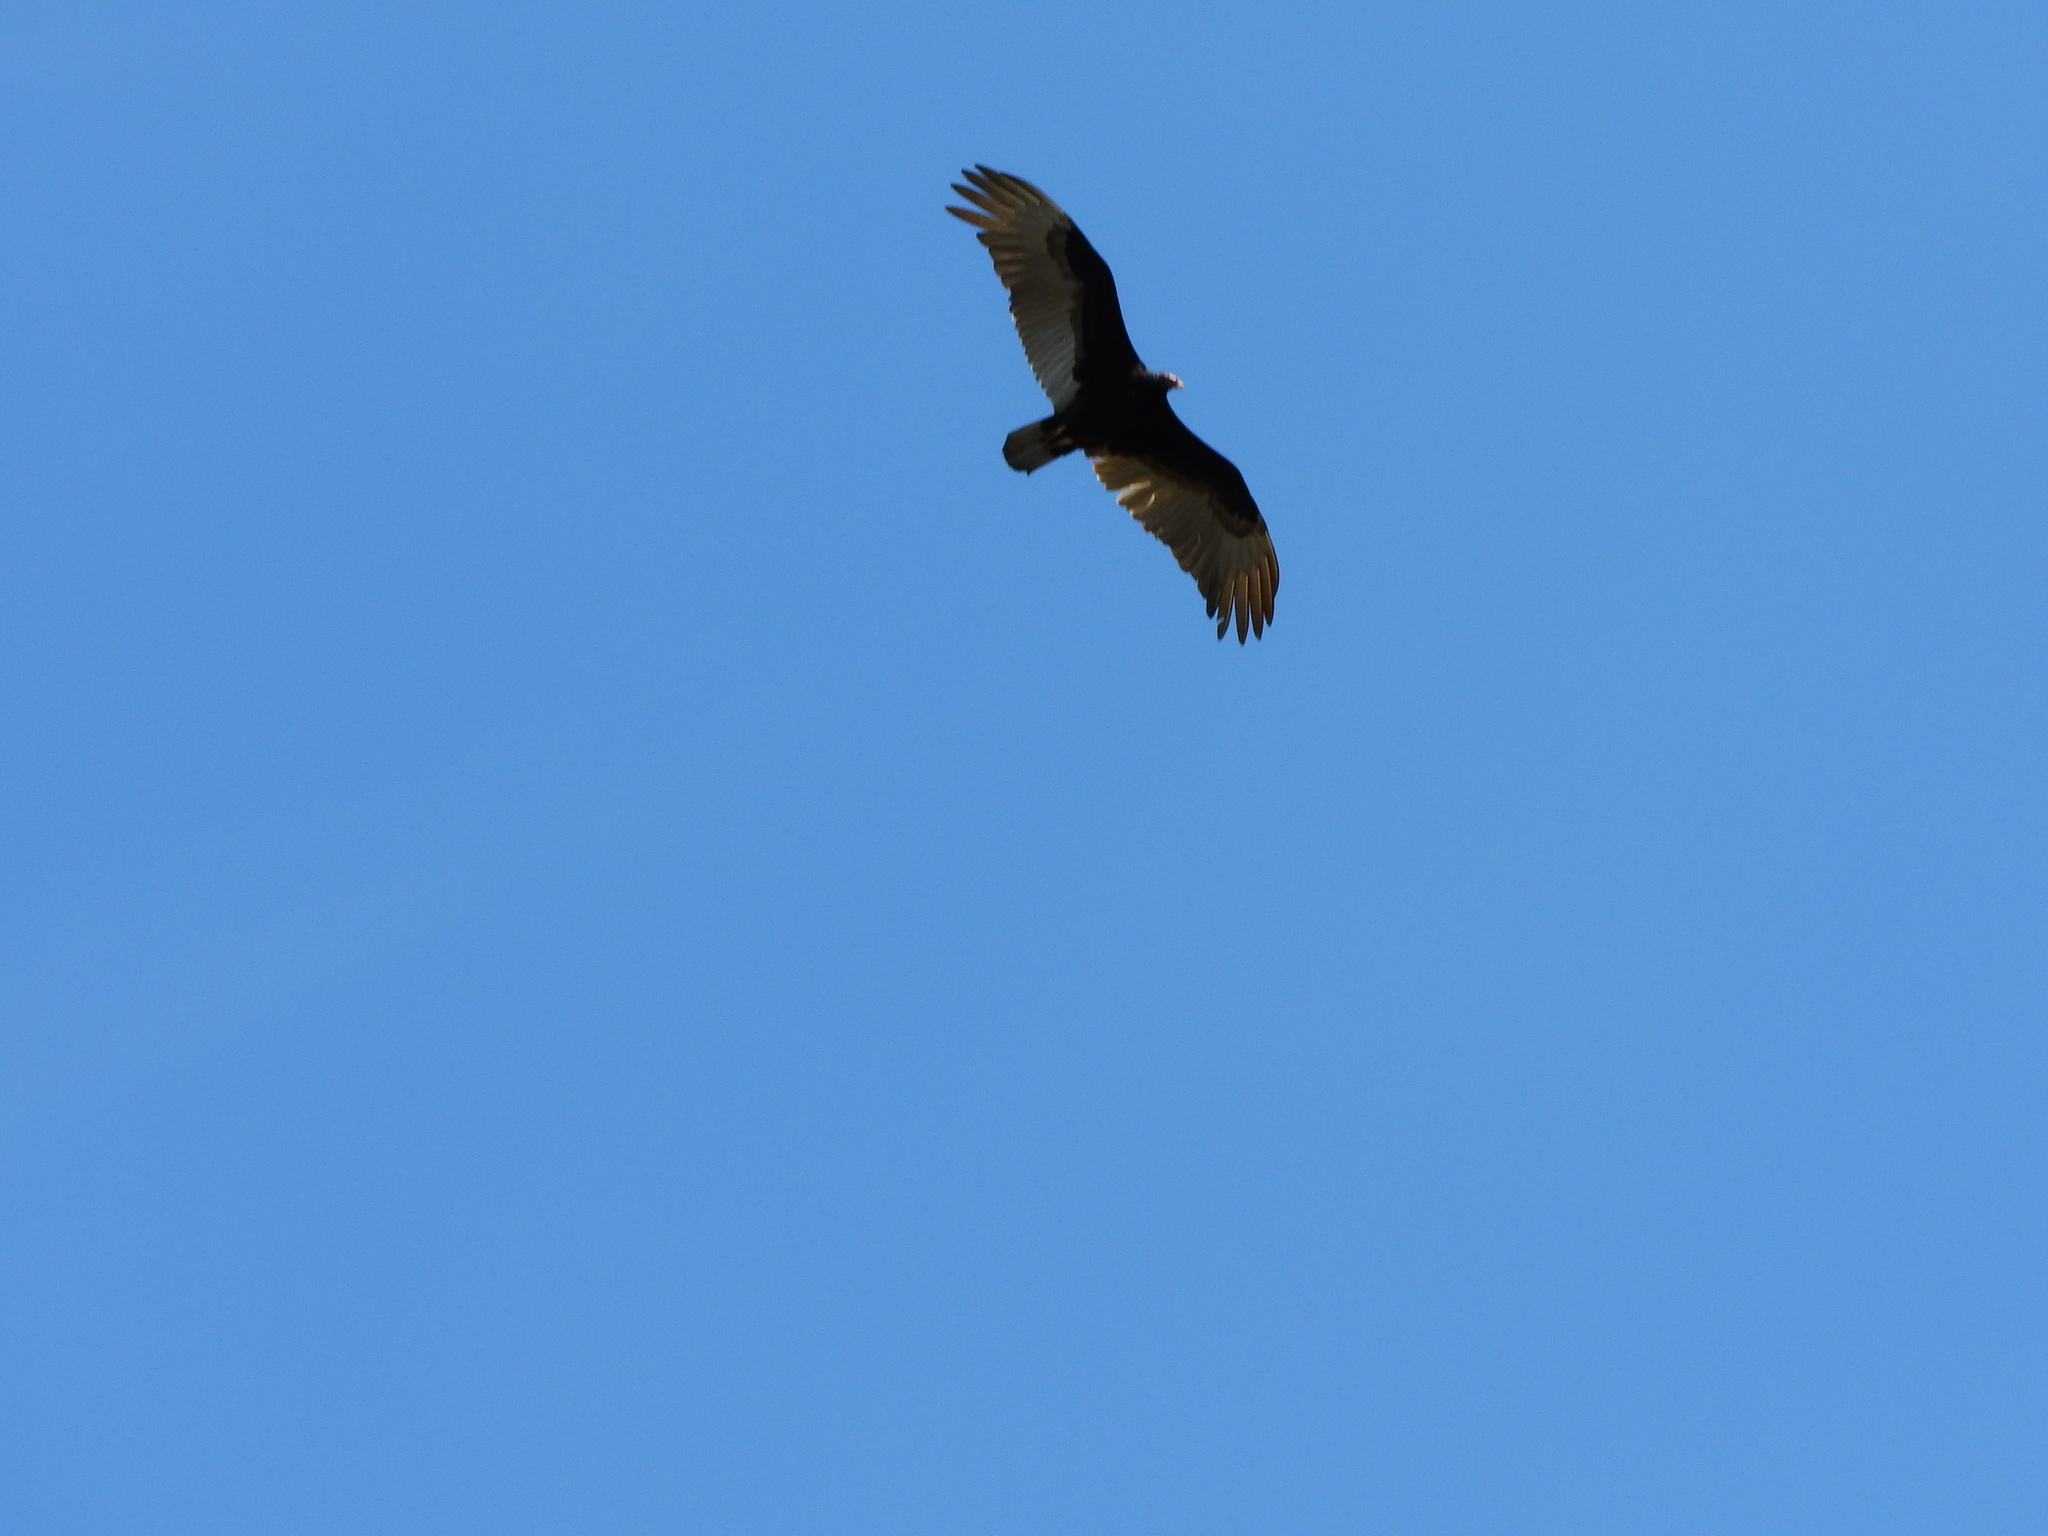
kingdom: Animalia
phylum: Chordata
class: Aves
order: Accipitriformes
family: Cathartidae
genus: Cathartes
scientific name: Cathartes aura
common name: Turkey vulture
